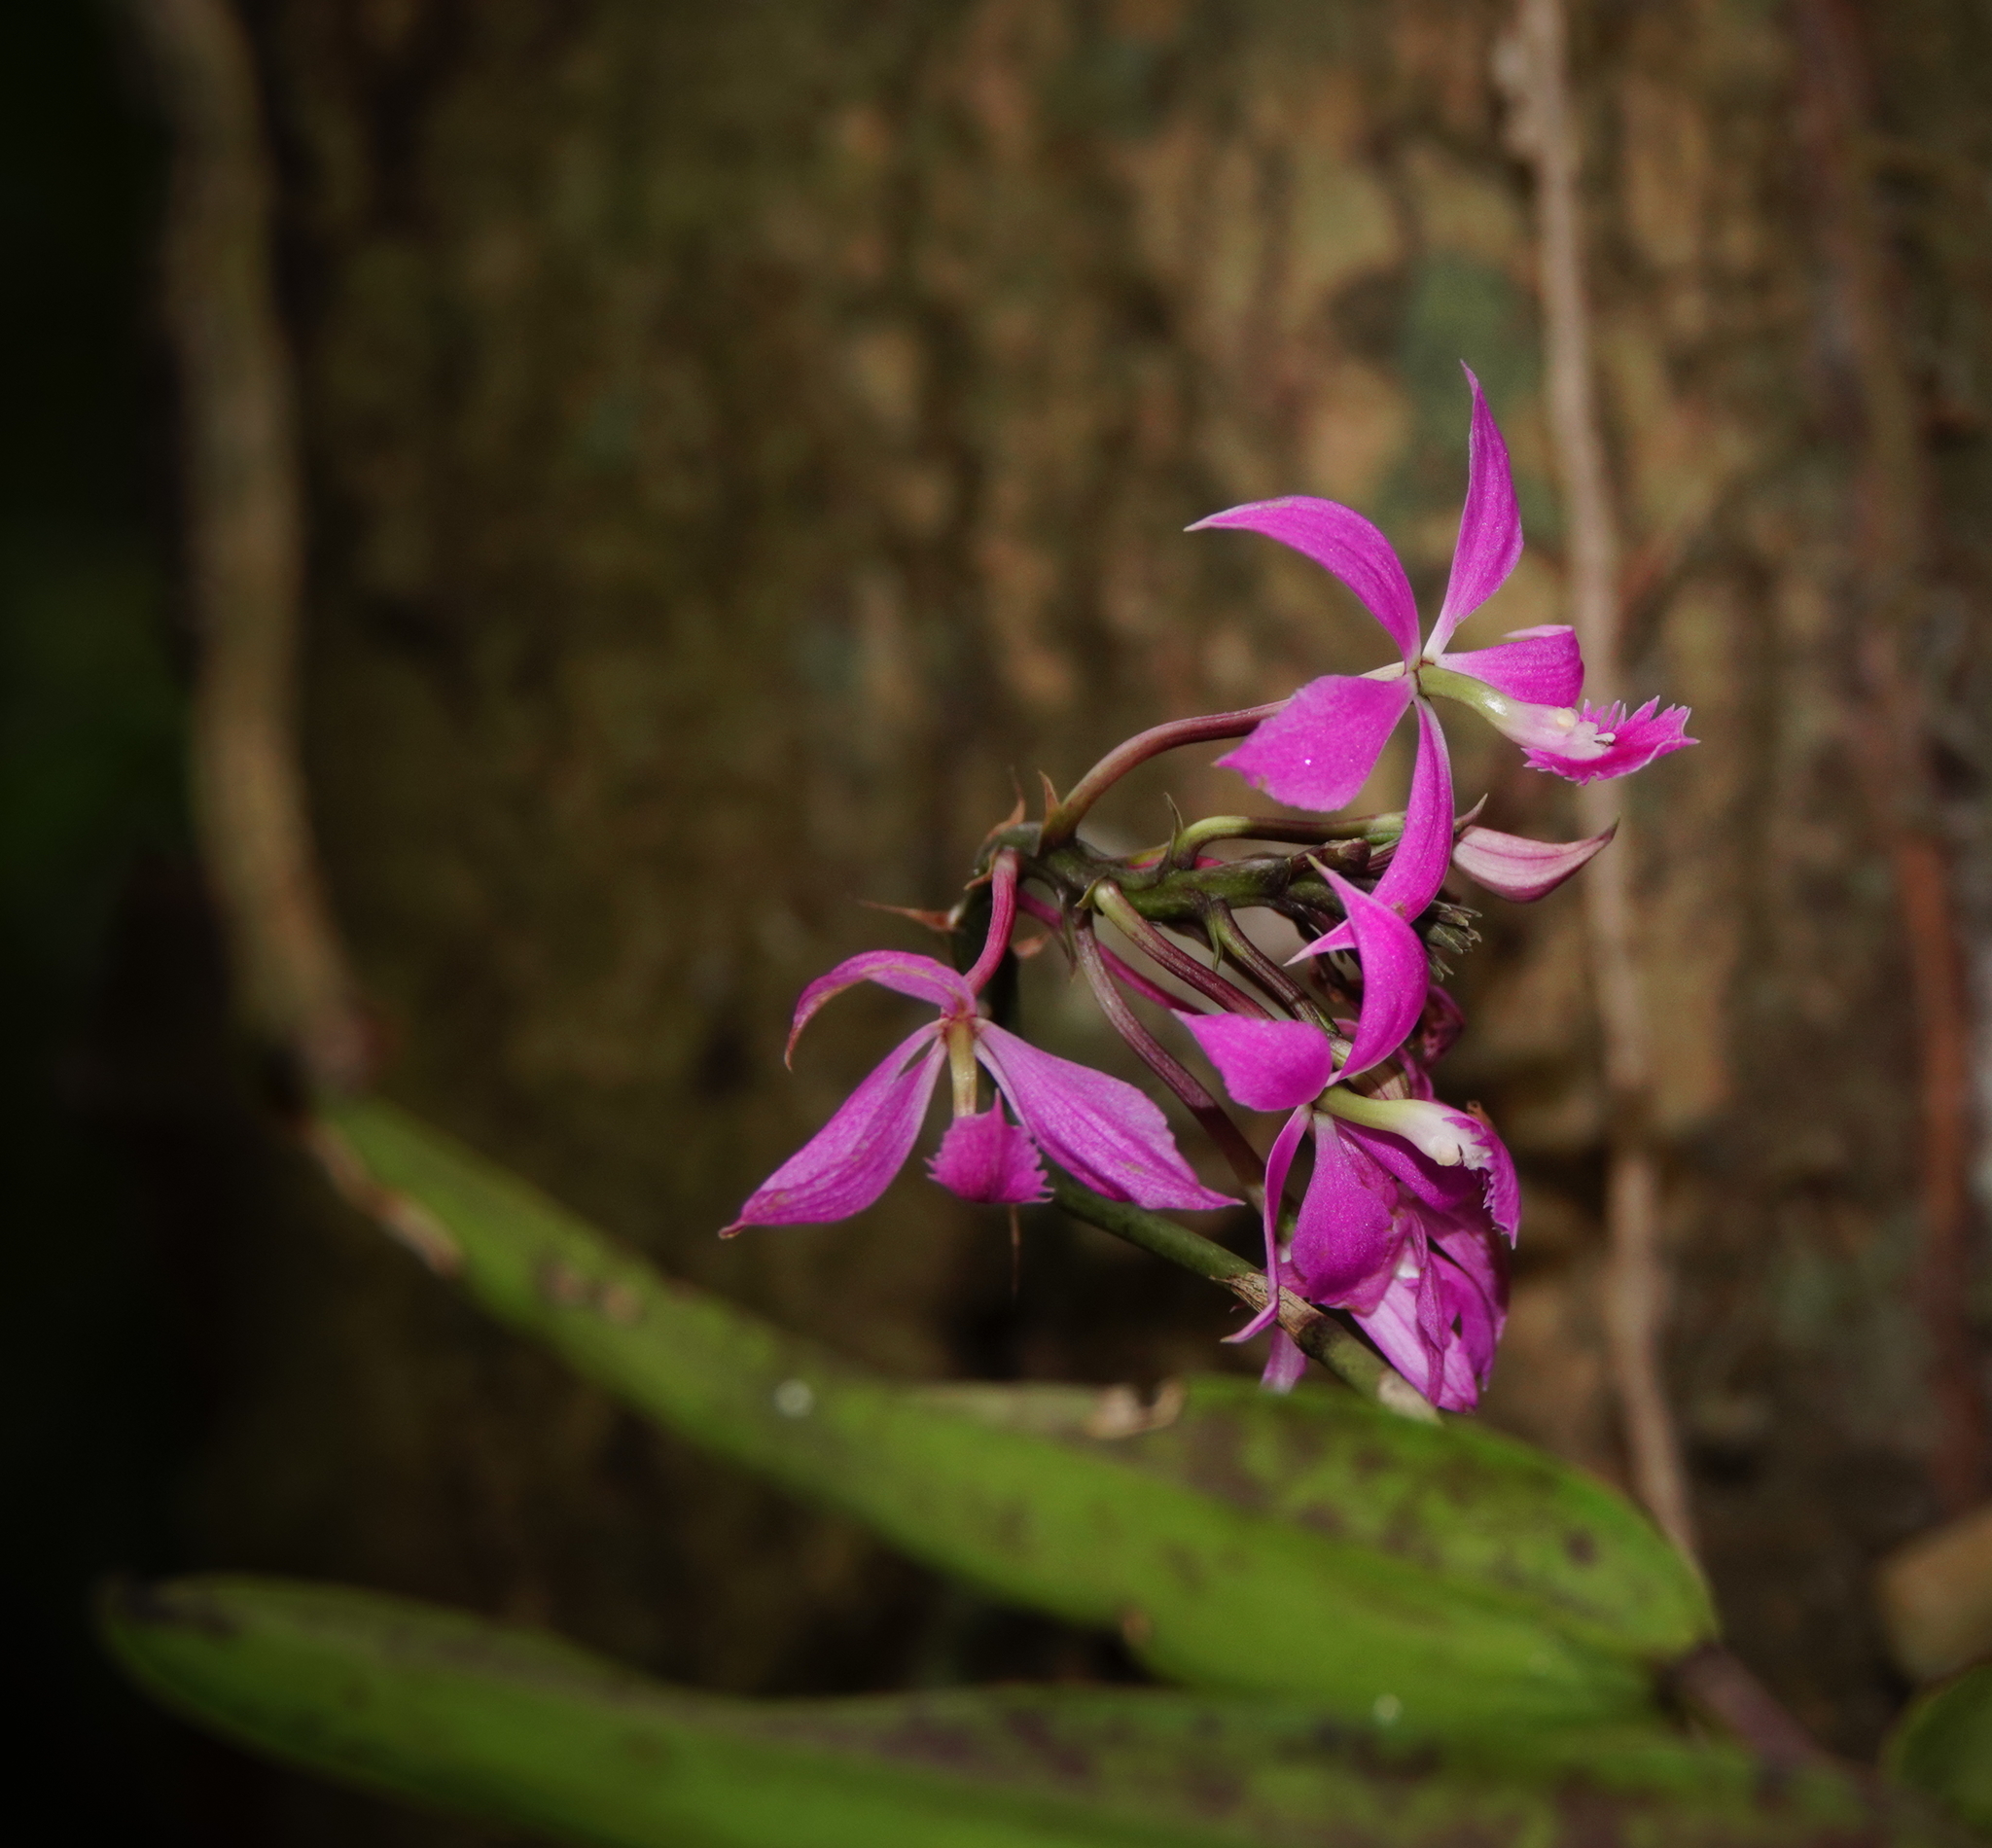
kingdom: Plantae
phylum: Tracheophyta
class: Liliopsida
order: Asparagales
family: Orchidaceae
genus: Epidendrum
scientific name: Epidendrum flexuosum
